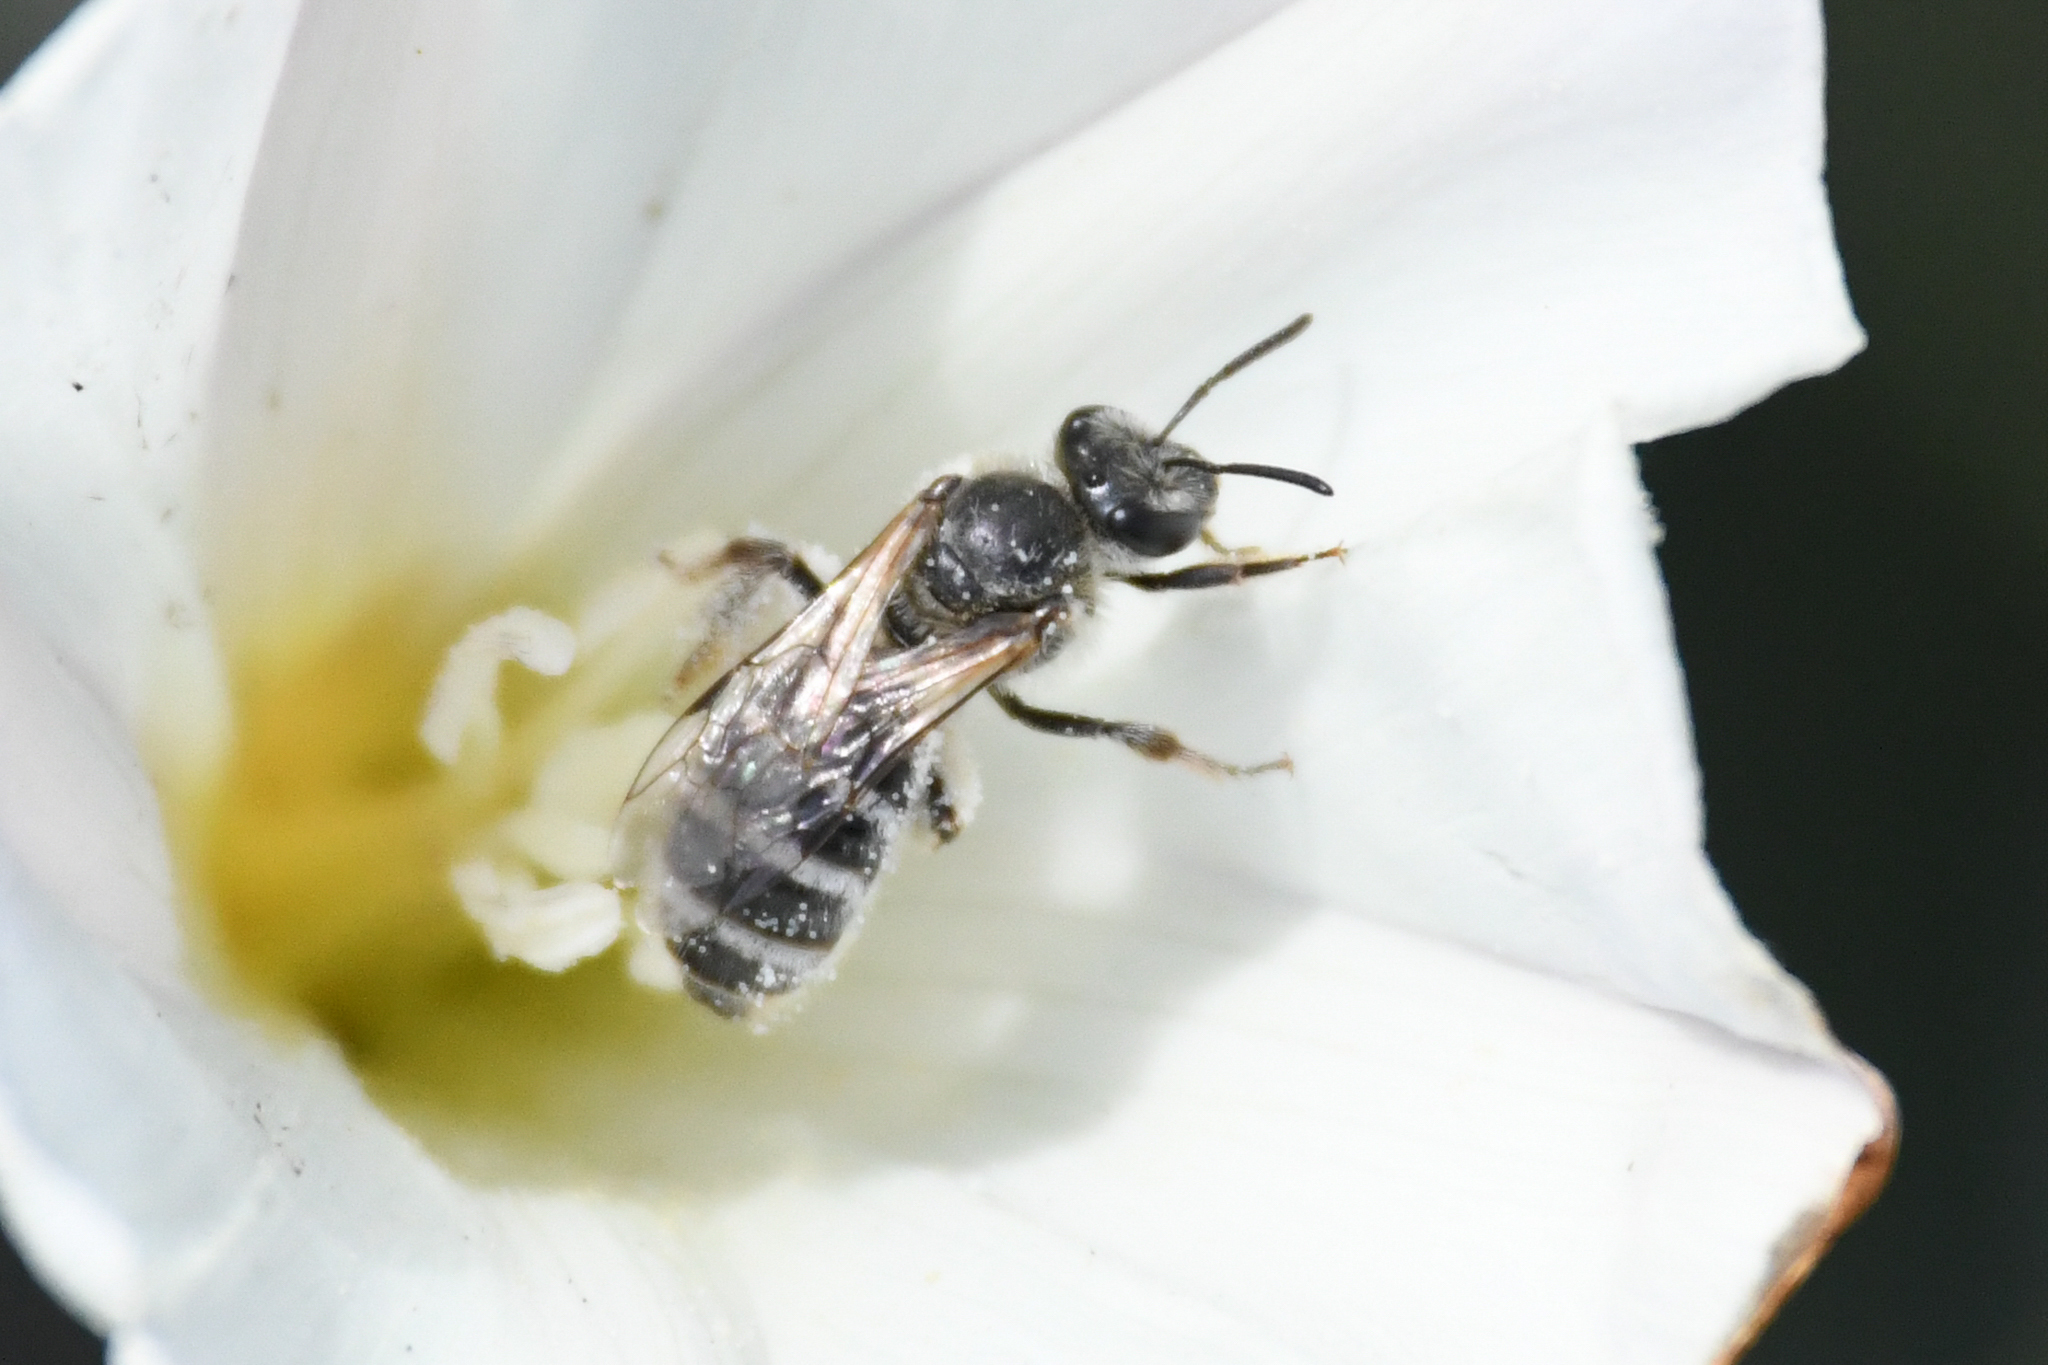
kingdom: Animalia
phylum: Arthropoda
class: Insecta
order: Hymenoptera
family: Halictidae
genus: Lasioglossum
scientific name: Lasioglossum sisymbrii
